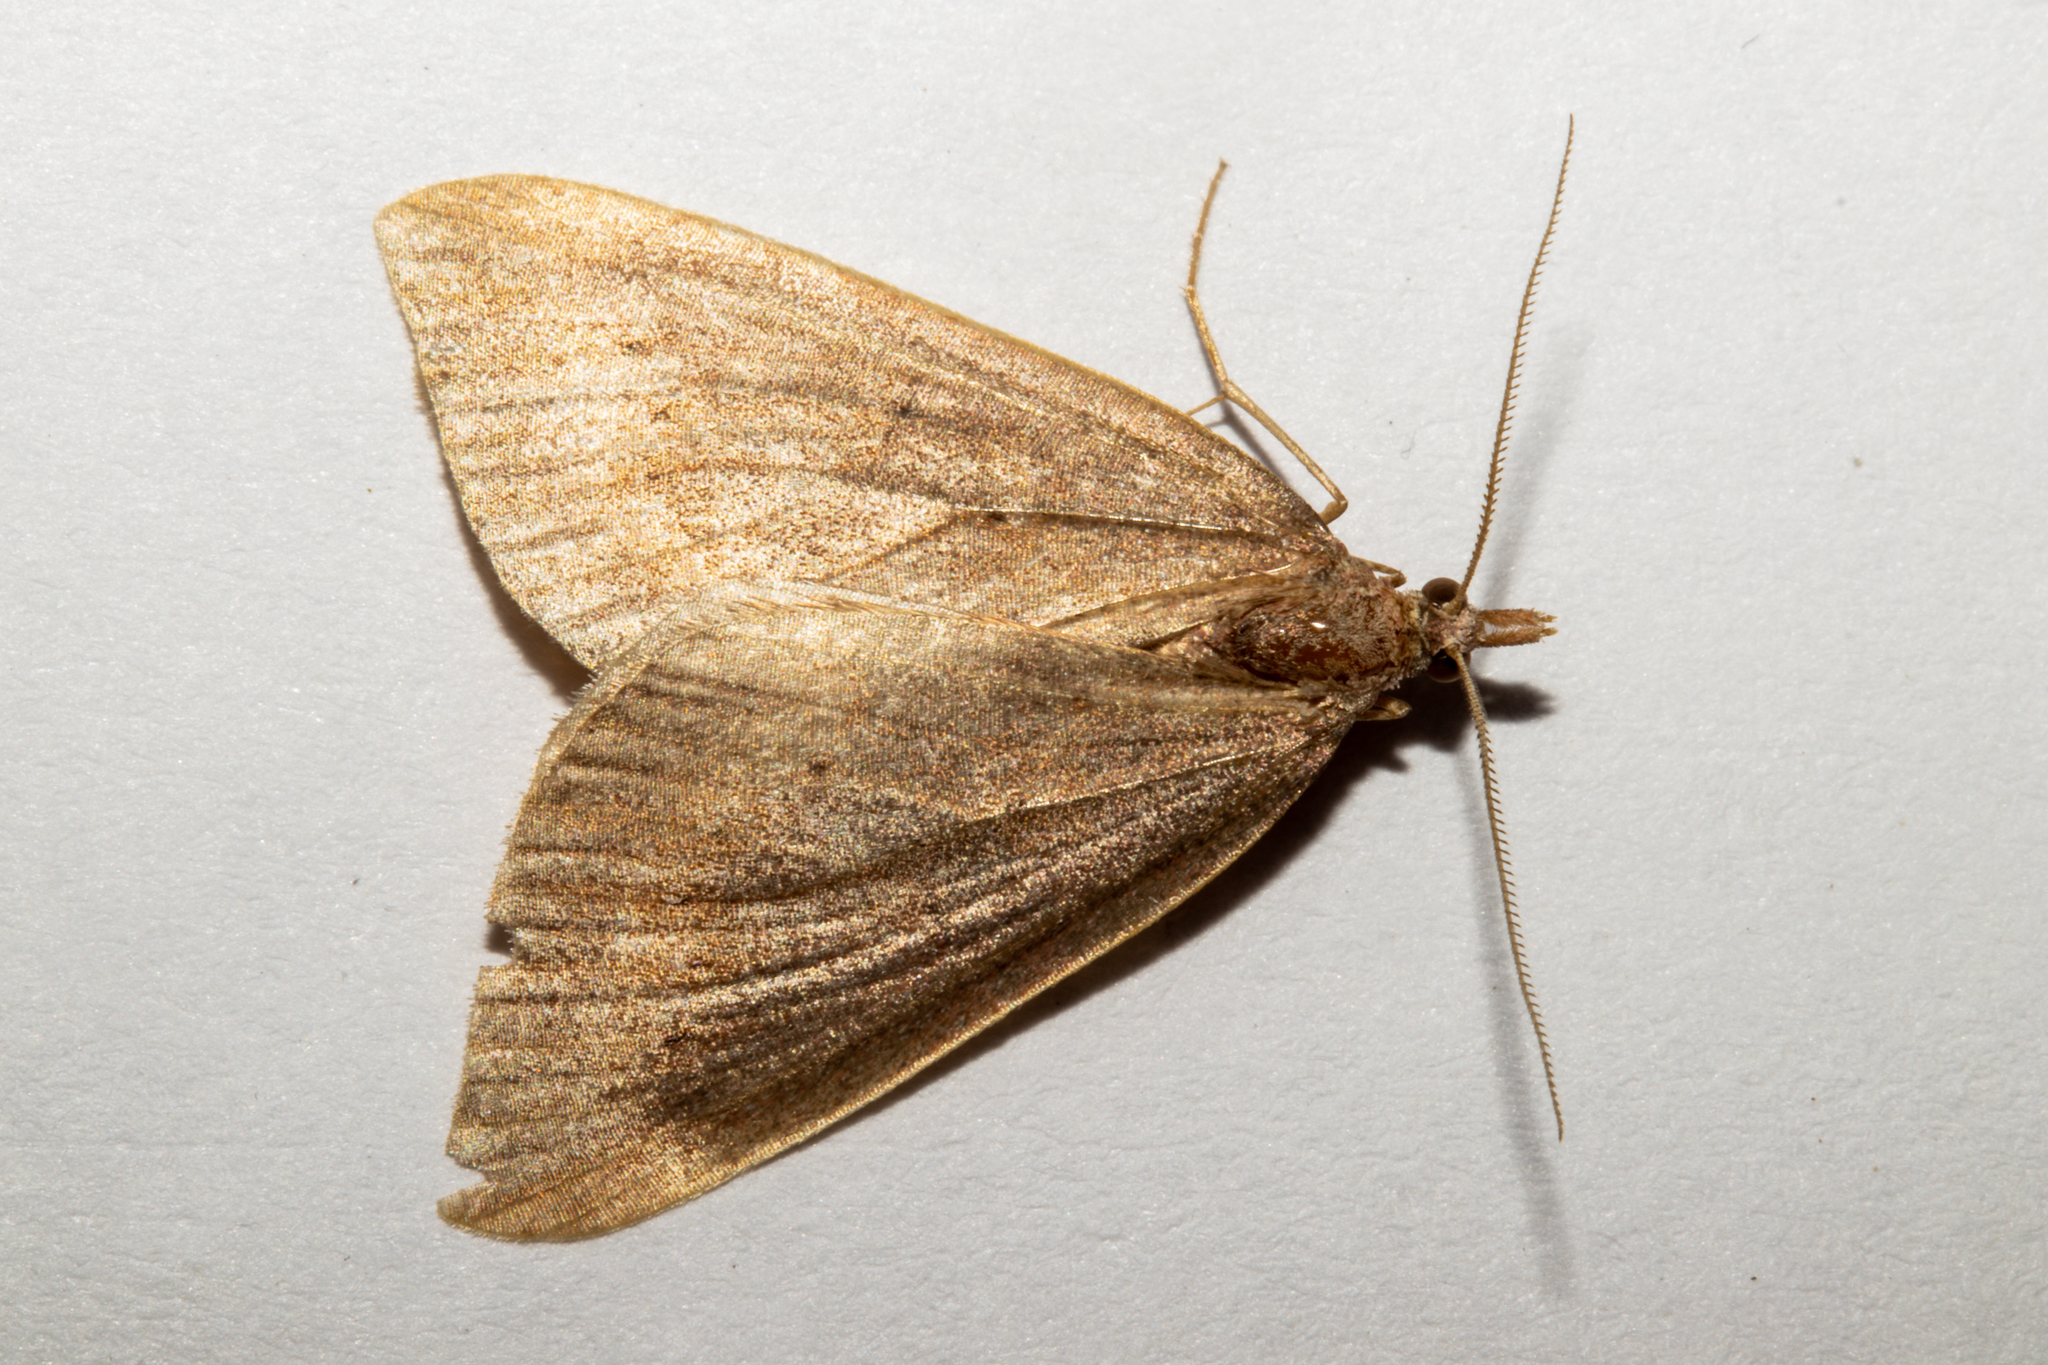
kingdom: Animalia
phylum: Arthropoda
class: Insecta
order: Lepidoptera
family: Geometridae
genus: Xanthorhoe
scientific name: Xanthorhoe occulta
